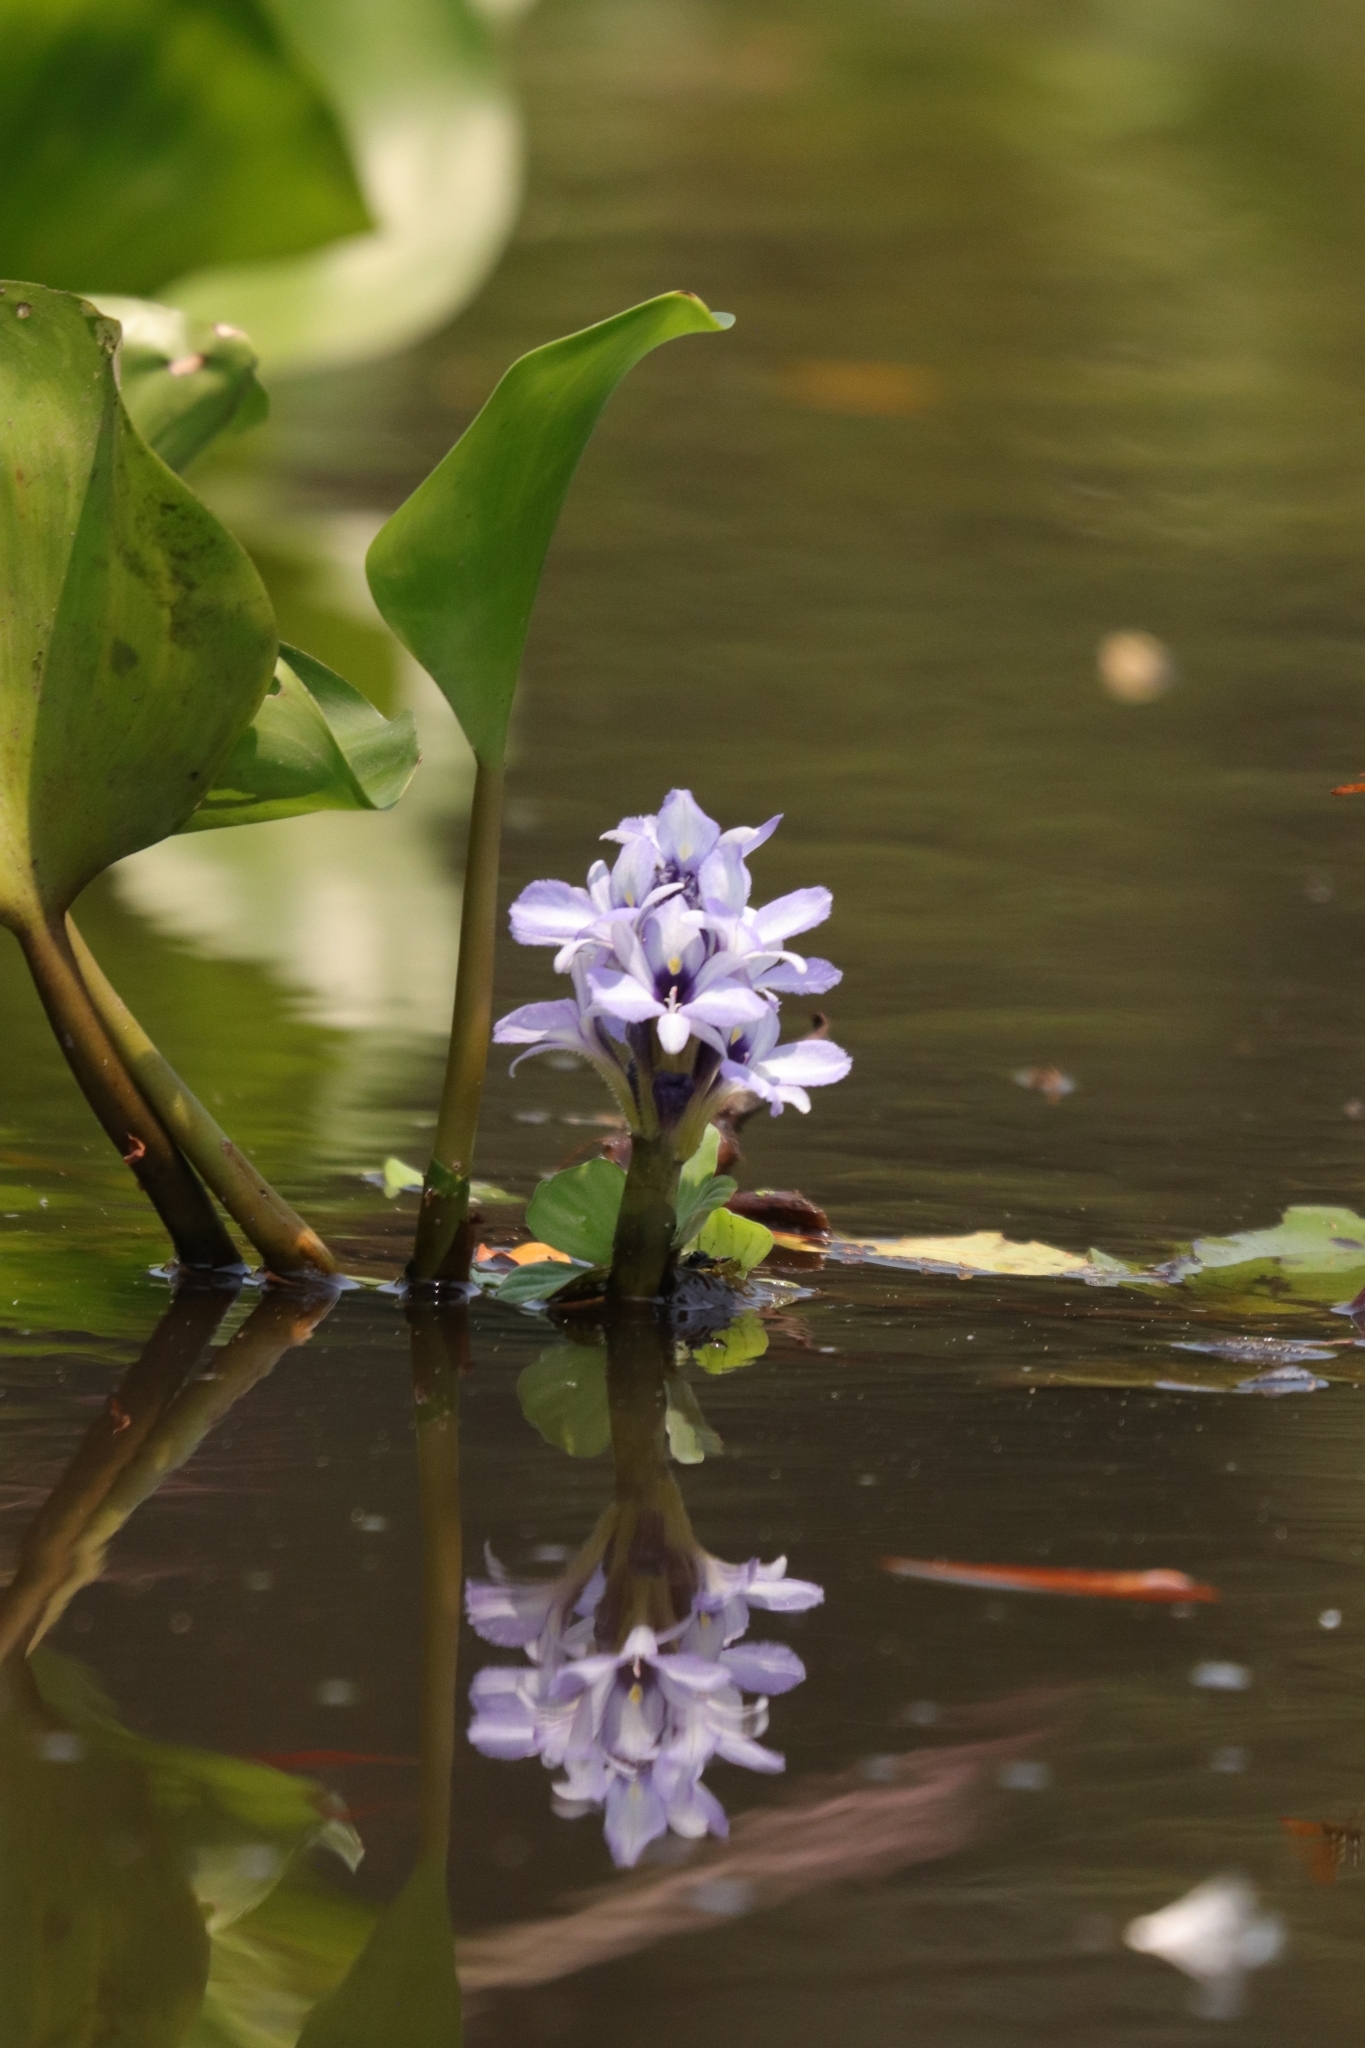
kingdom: Plantae
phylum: Tracheophyta
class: Liliopsida
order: Commelinales
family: Pontederiaceae
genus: Pontederia
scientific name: Pontederia azurea
